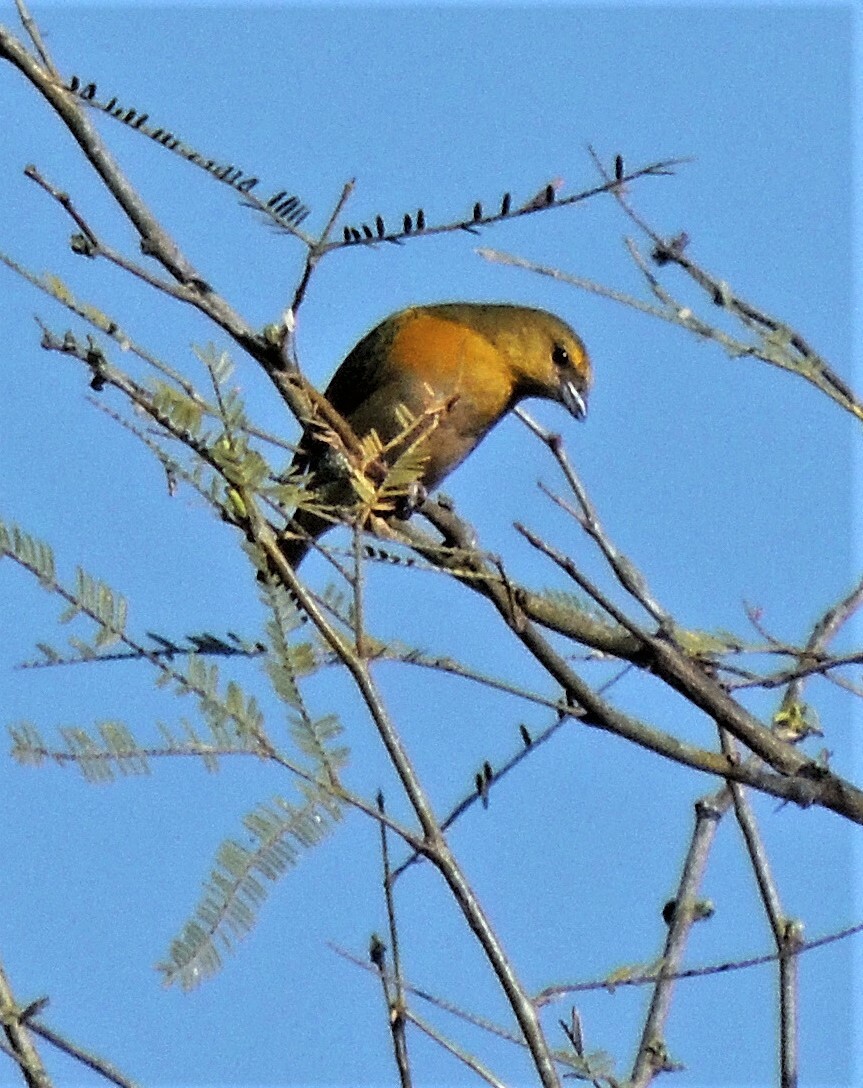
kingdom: Animalia
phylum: Chordata
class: Aves
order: Passeriformes
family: Fringillidae
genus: Euphonia
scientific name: Euphonia chlorotica
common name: Purple-throated euphonia
